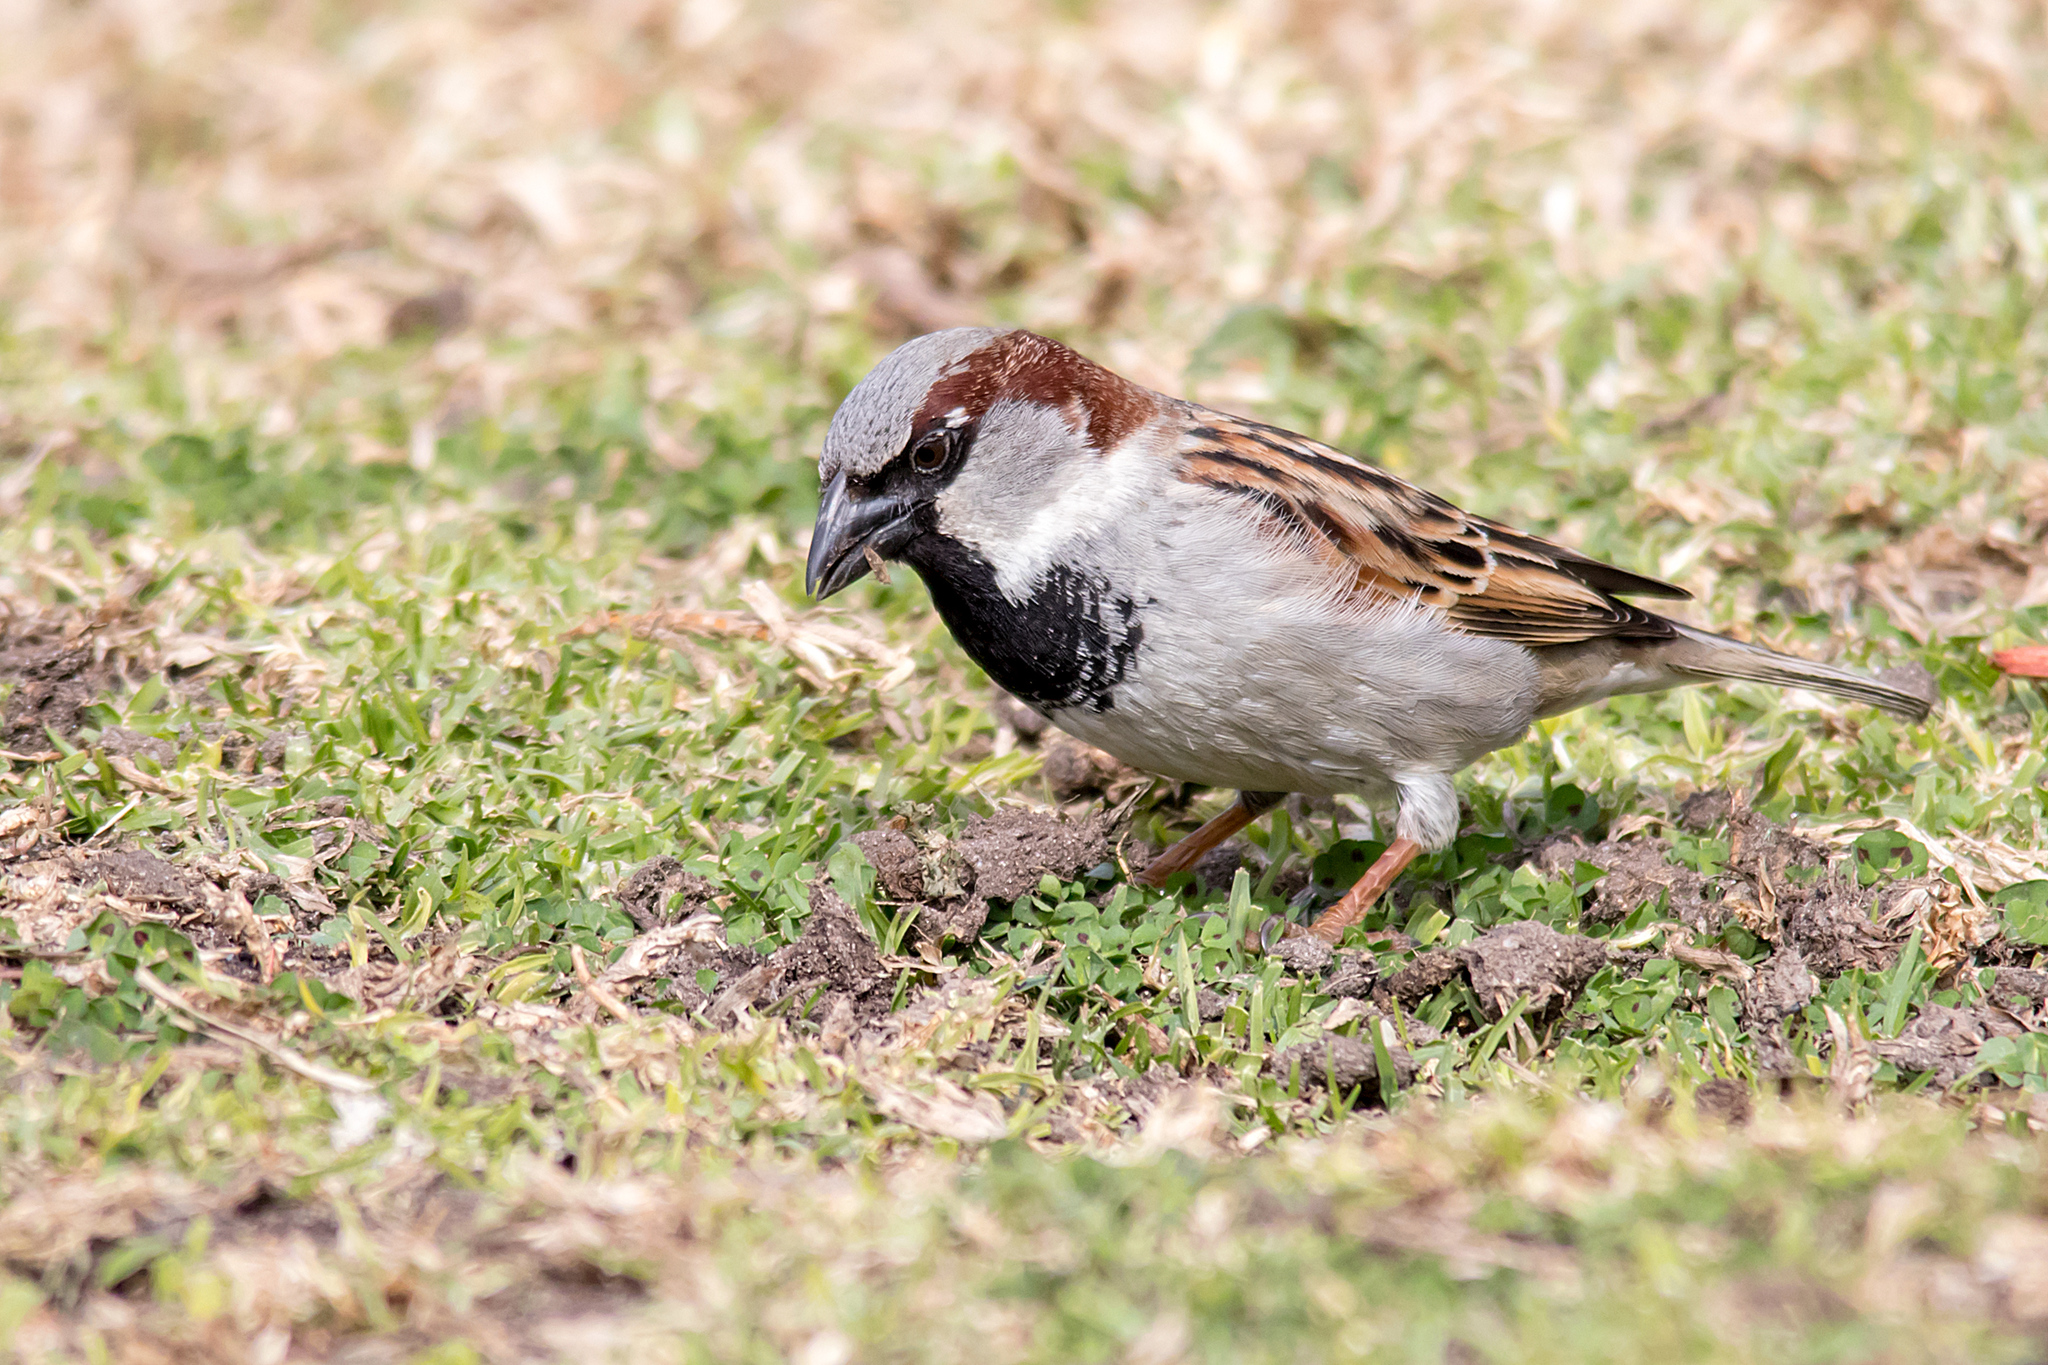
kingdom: Animalia
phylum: Chordata
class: Aves
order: Passeriformes
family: Passeridae
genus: Passer
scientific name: Passer domesticus
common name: House sparrow
